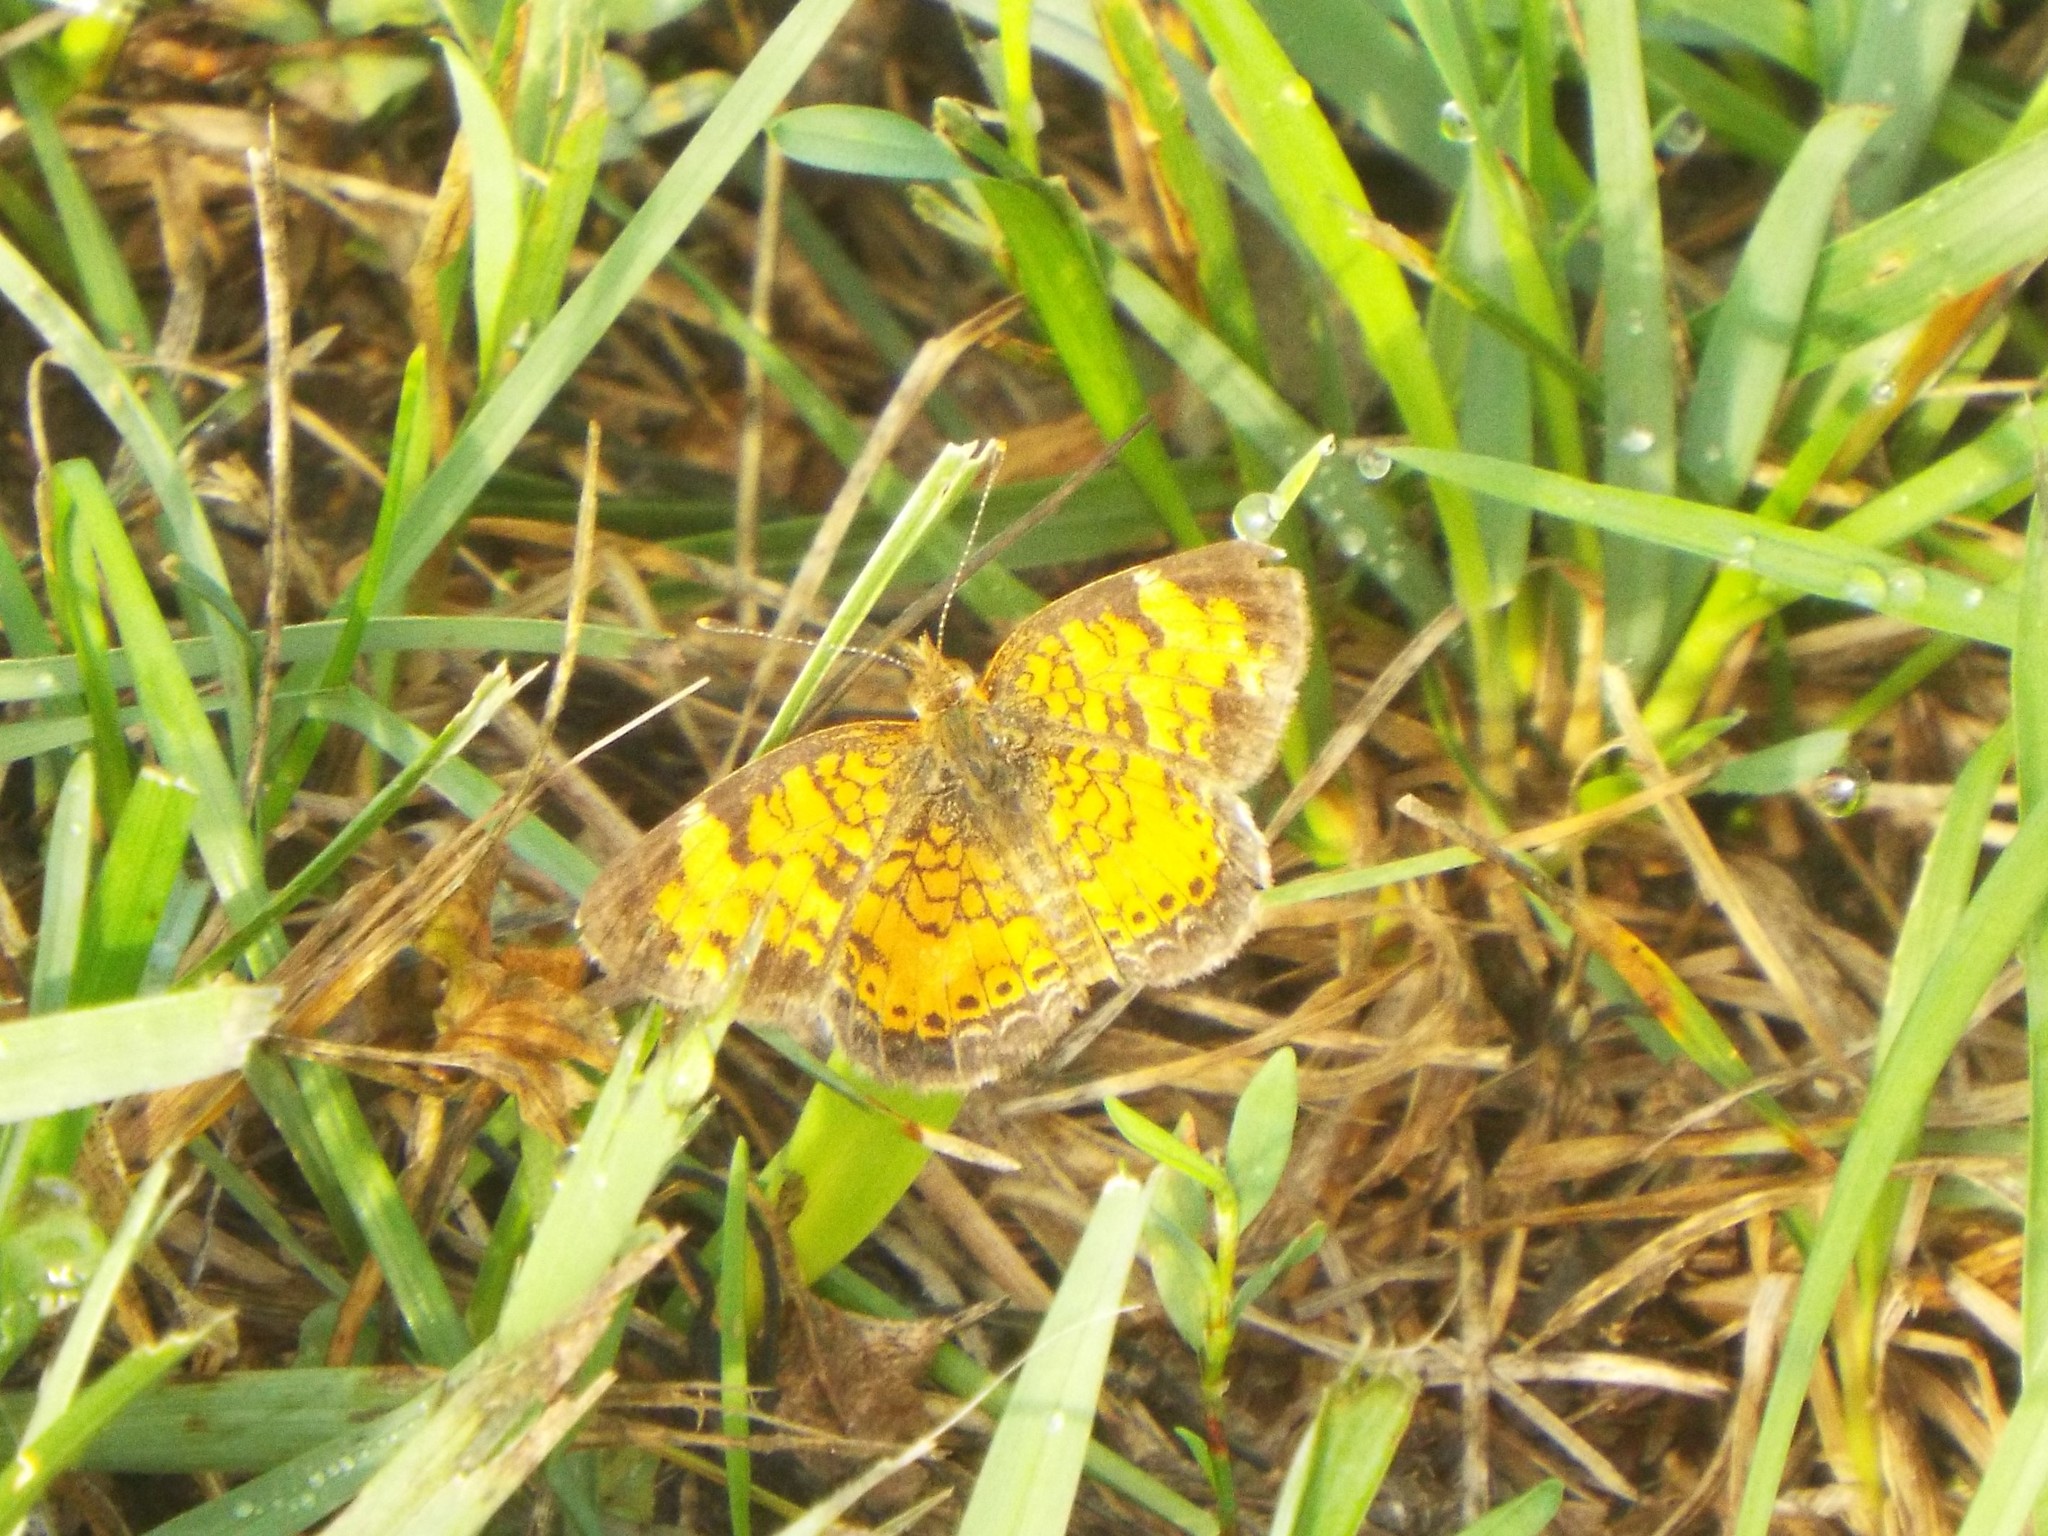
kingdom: Animalia
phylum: Arthropoda
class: Insecta
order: Lepidoptera
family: Nymphalidae
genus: Phyciodes
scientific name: Phyciodes tharos
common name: Pearl crescent
